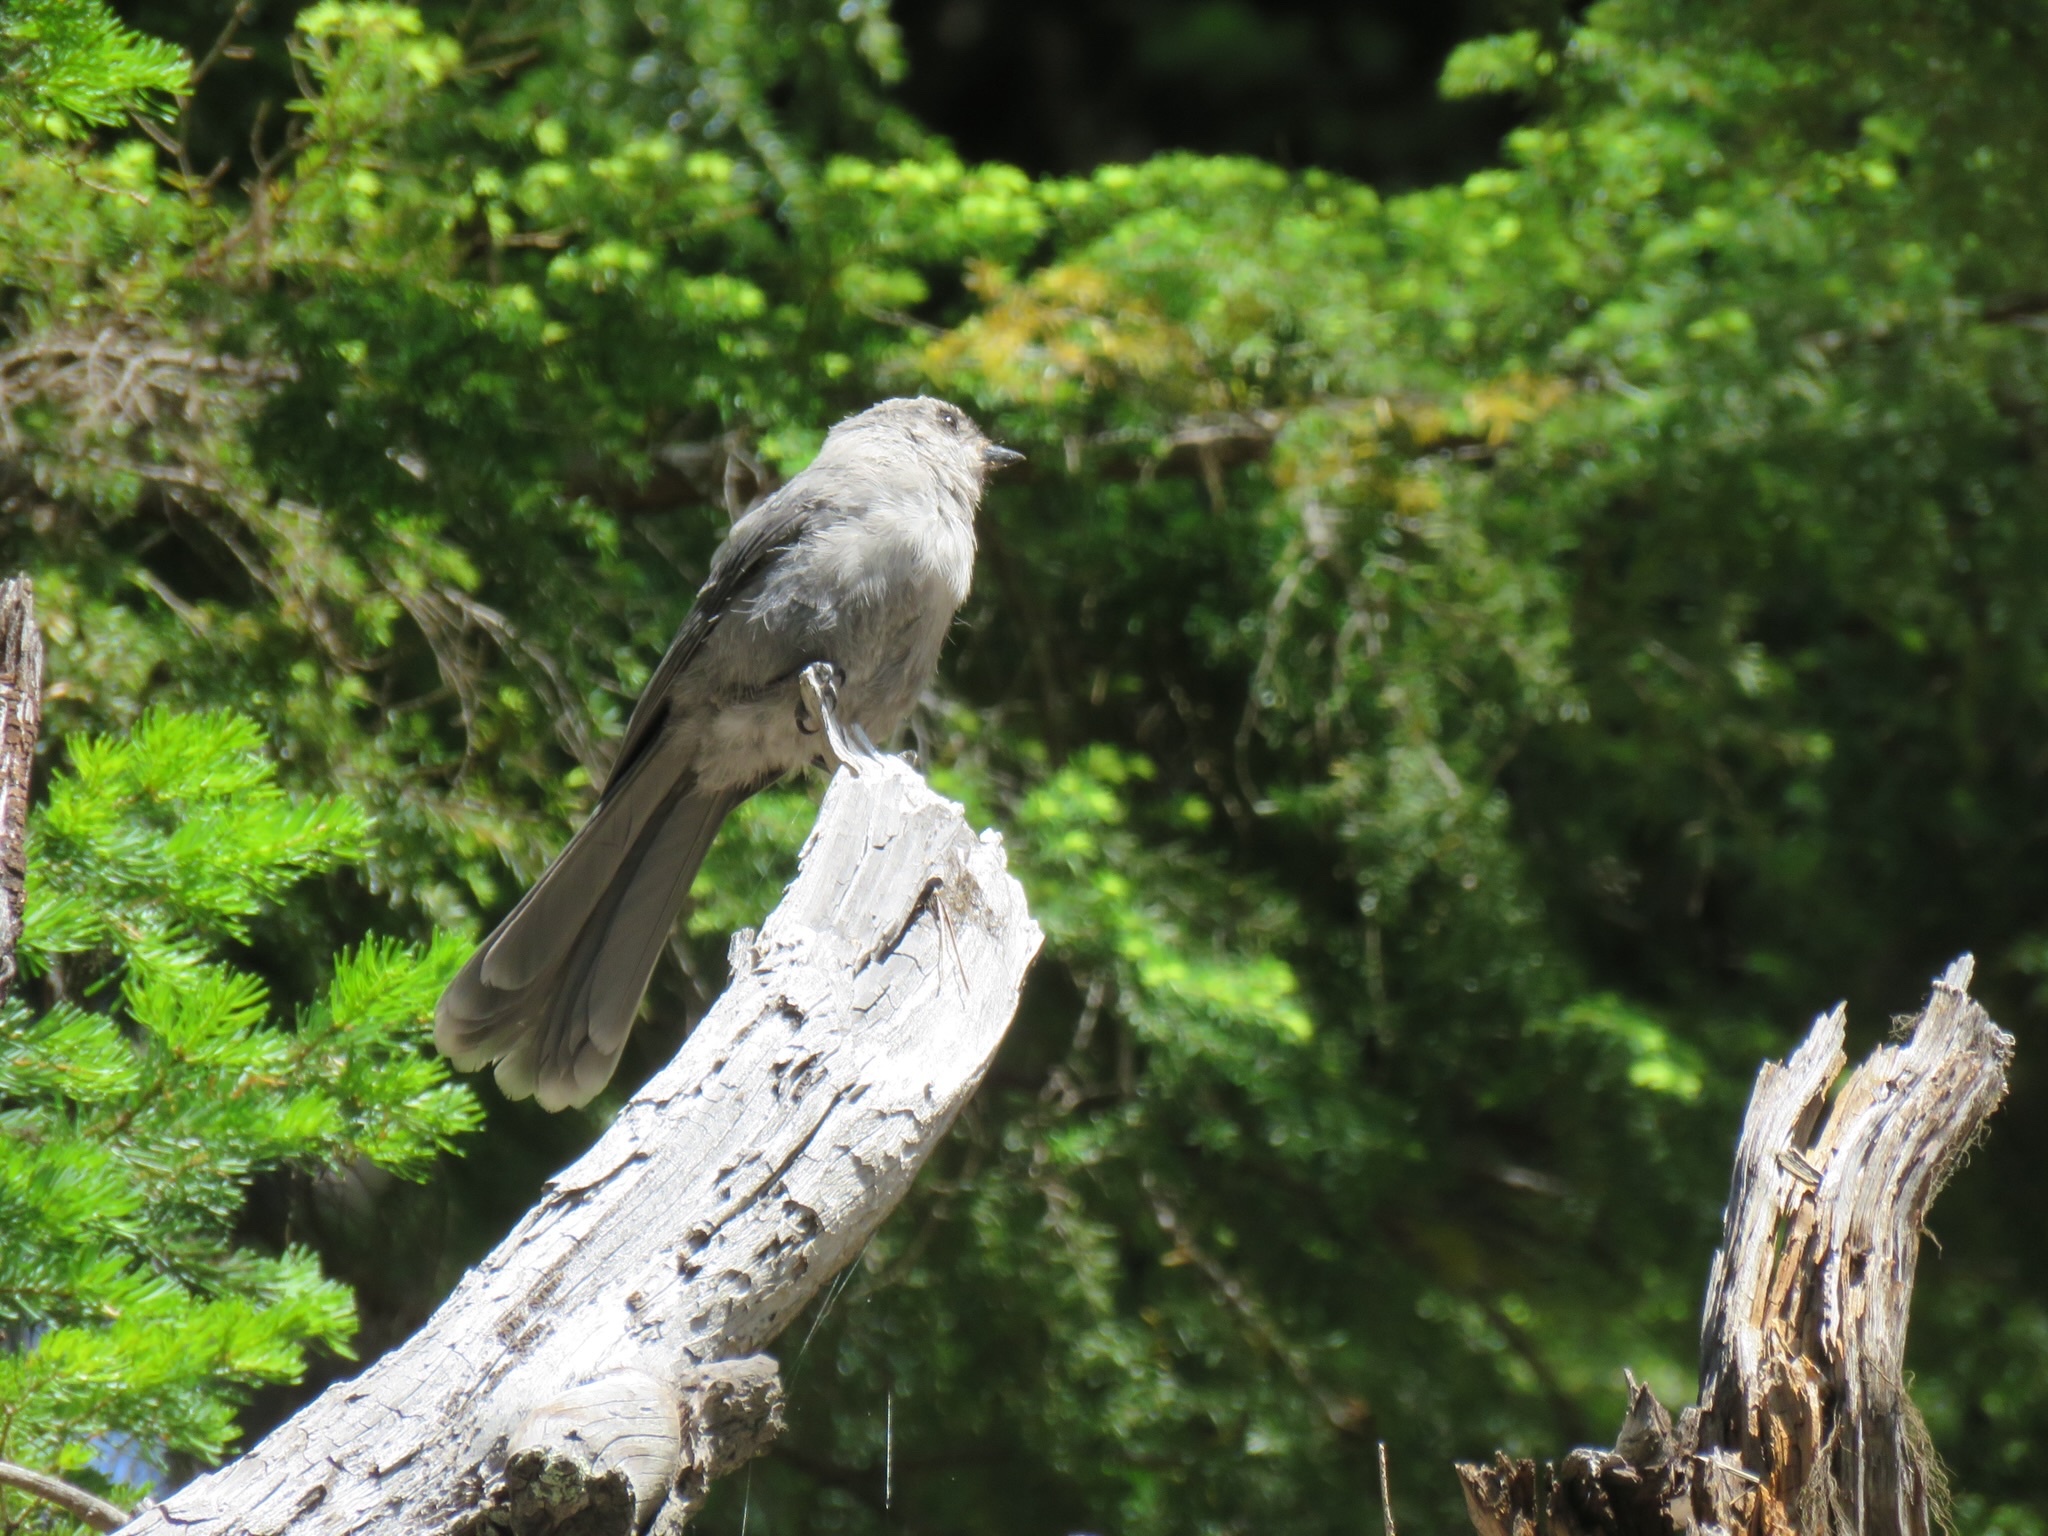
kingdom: Animalia
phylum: Chordata
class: Aves
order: Passeriformes
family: Corvidae
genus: Perisoreus
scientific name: Perisoreus canadensis
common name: Gray jay
